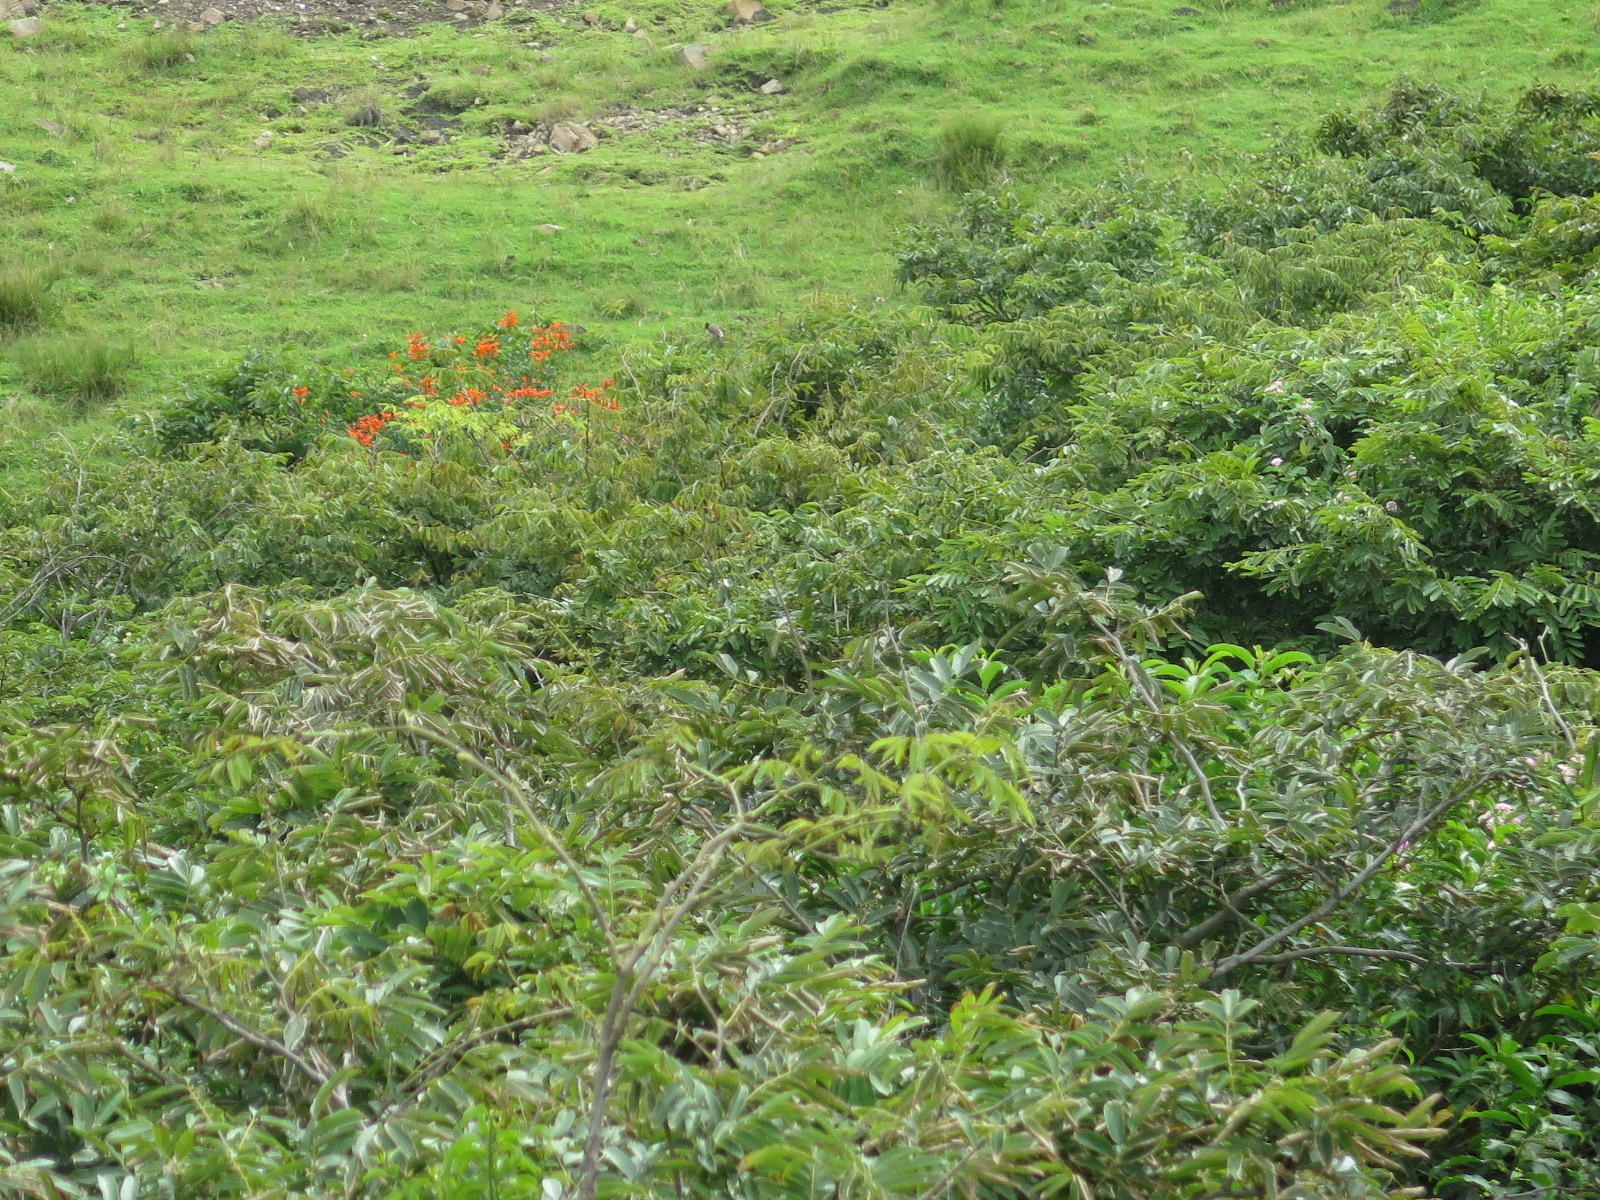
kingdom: Plantae
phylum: Tracheophyta
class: Magnoliopsida
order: Lamiales
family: Bignoniaceae
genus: Tecomaria
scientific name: Tecomaria capensis
